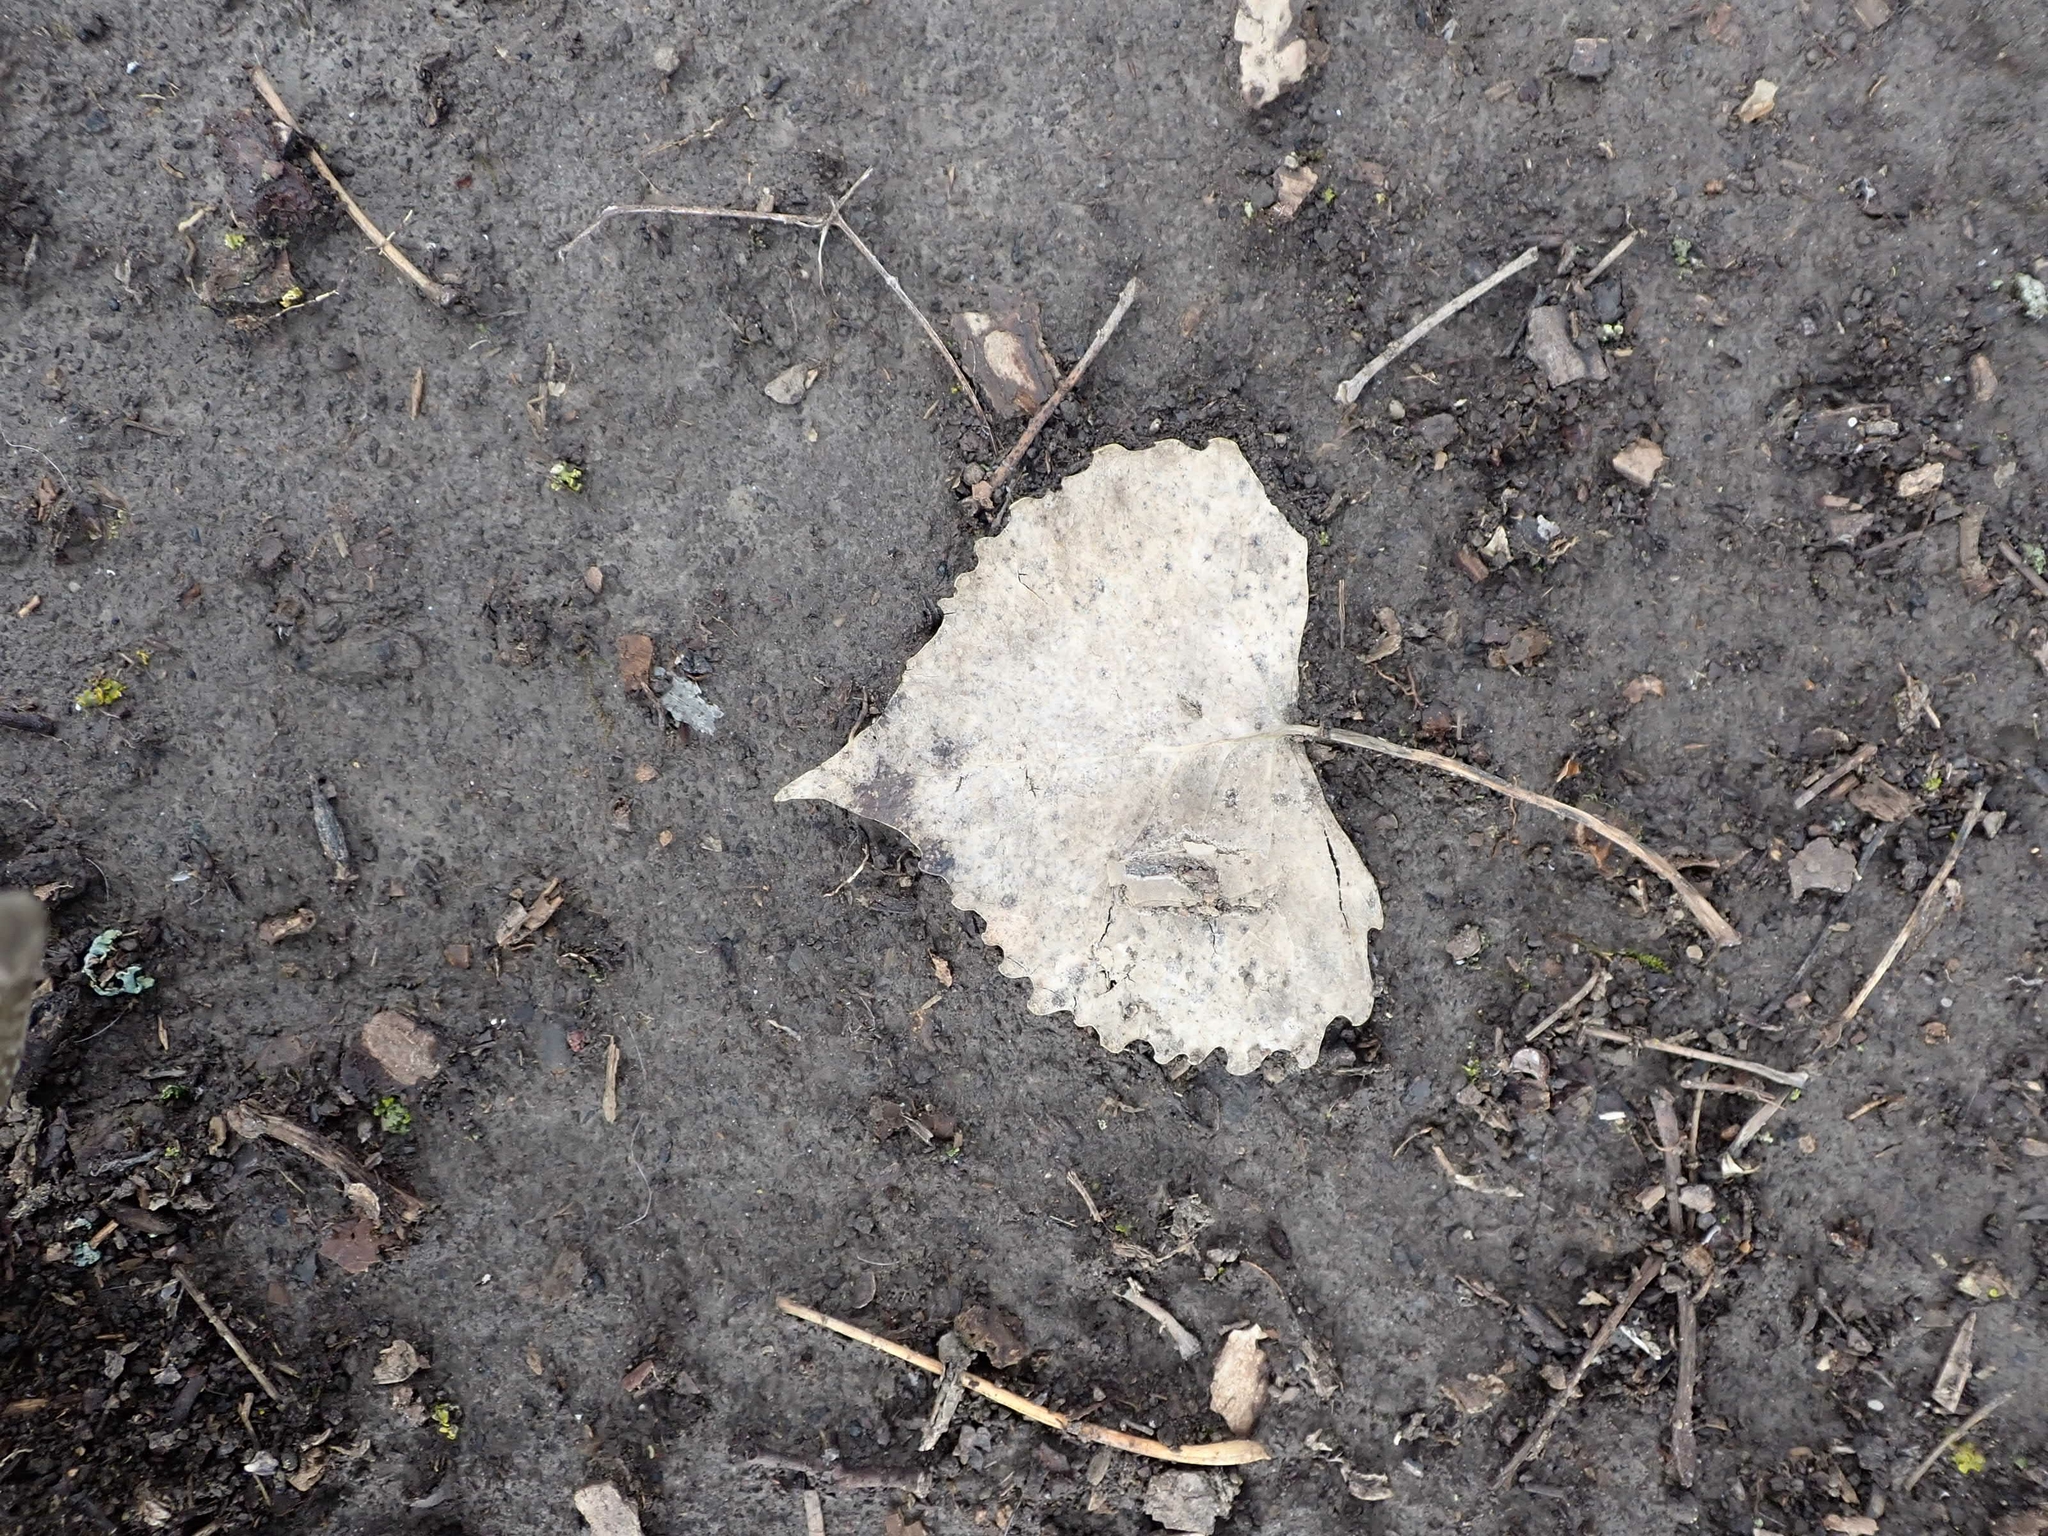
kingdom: Plantae
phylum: Tracheophyta
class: Magnoliopsida
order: Malpighiales
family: Salicaceae
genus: Populus
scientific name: Populus deltoides
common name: Eastern cottonwood
